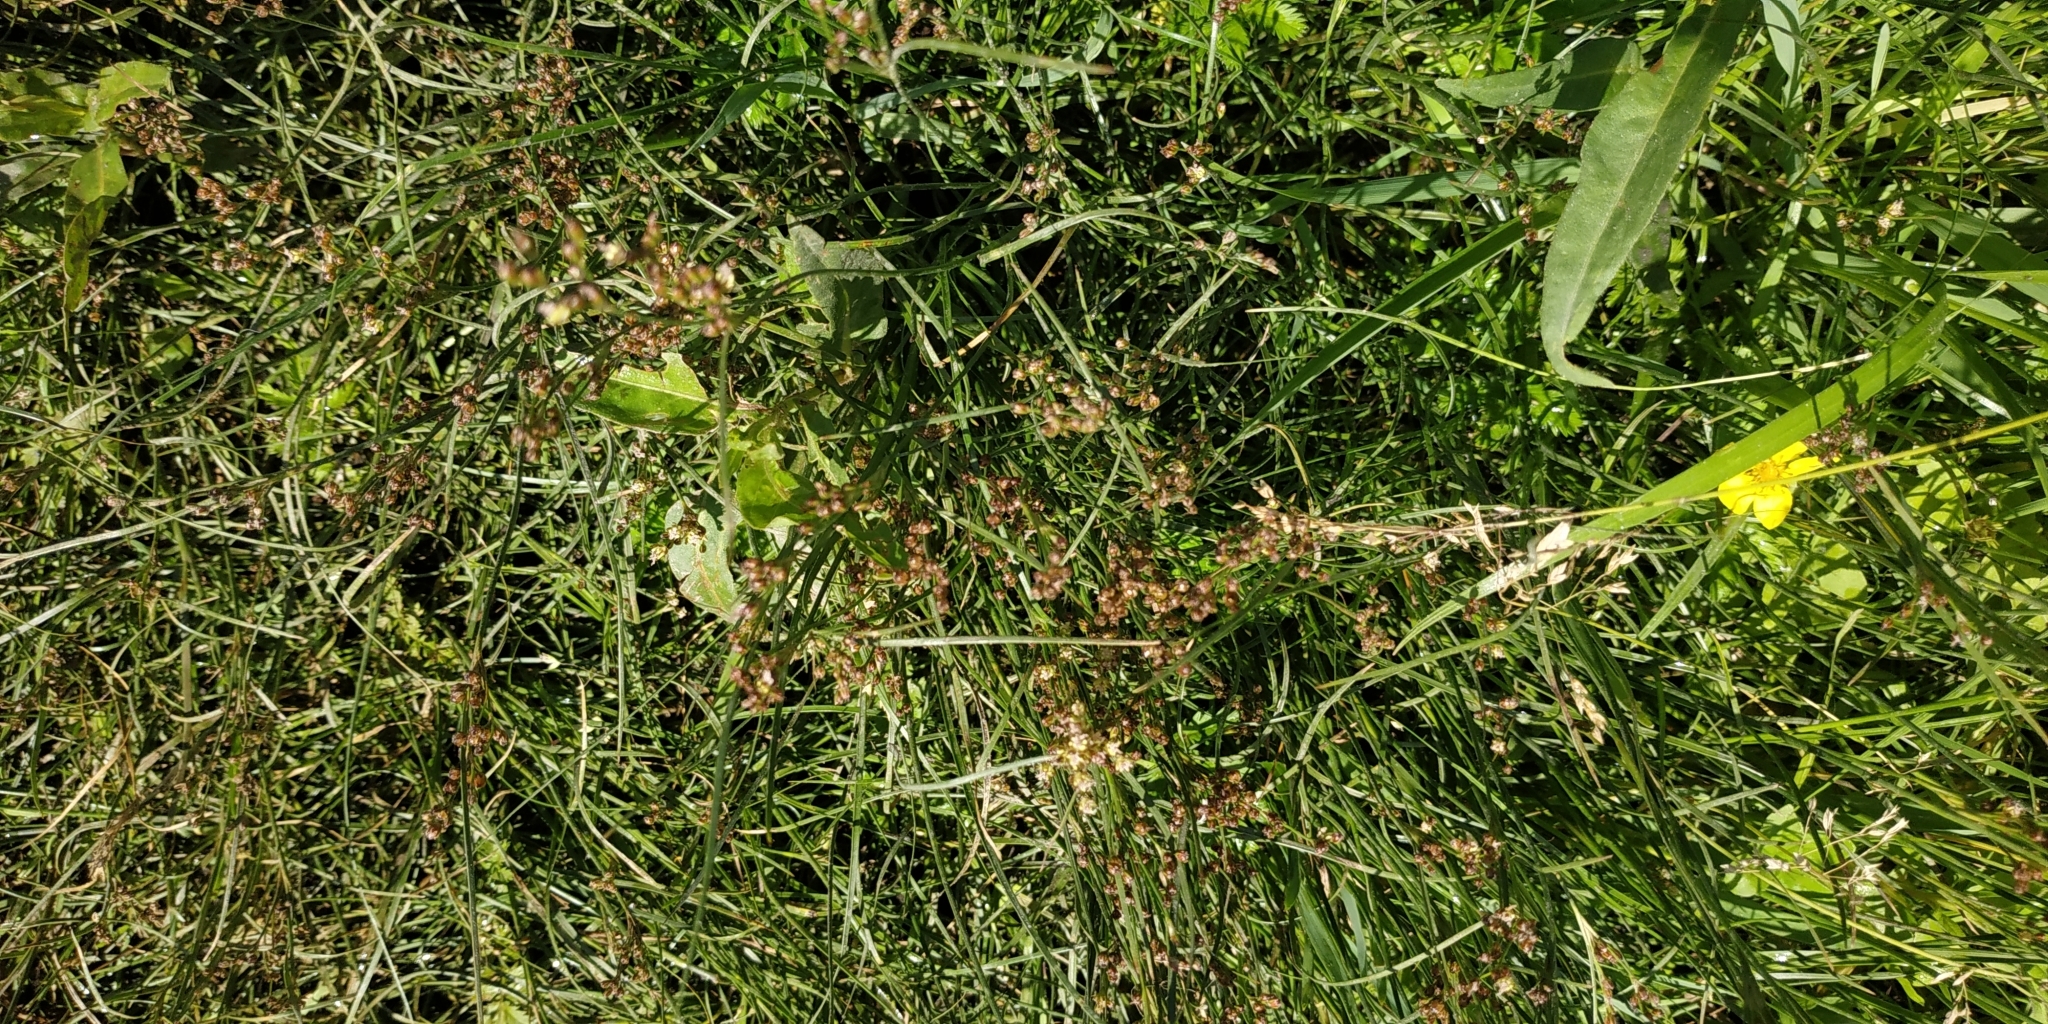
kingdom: Plantae
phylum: Tracheophyta
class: Liliopsida
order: Poales
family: Juncaceae
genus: Juncus
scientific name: Juncus compressus
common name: Round-fruited rush
